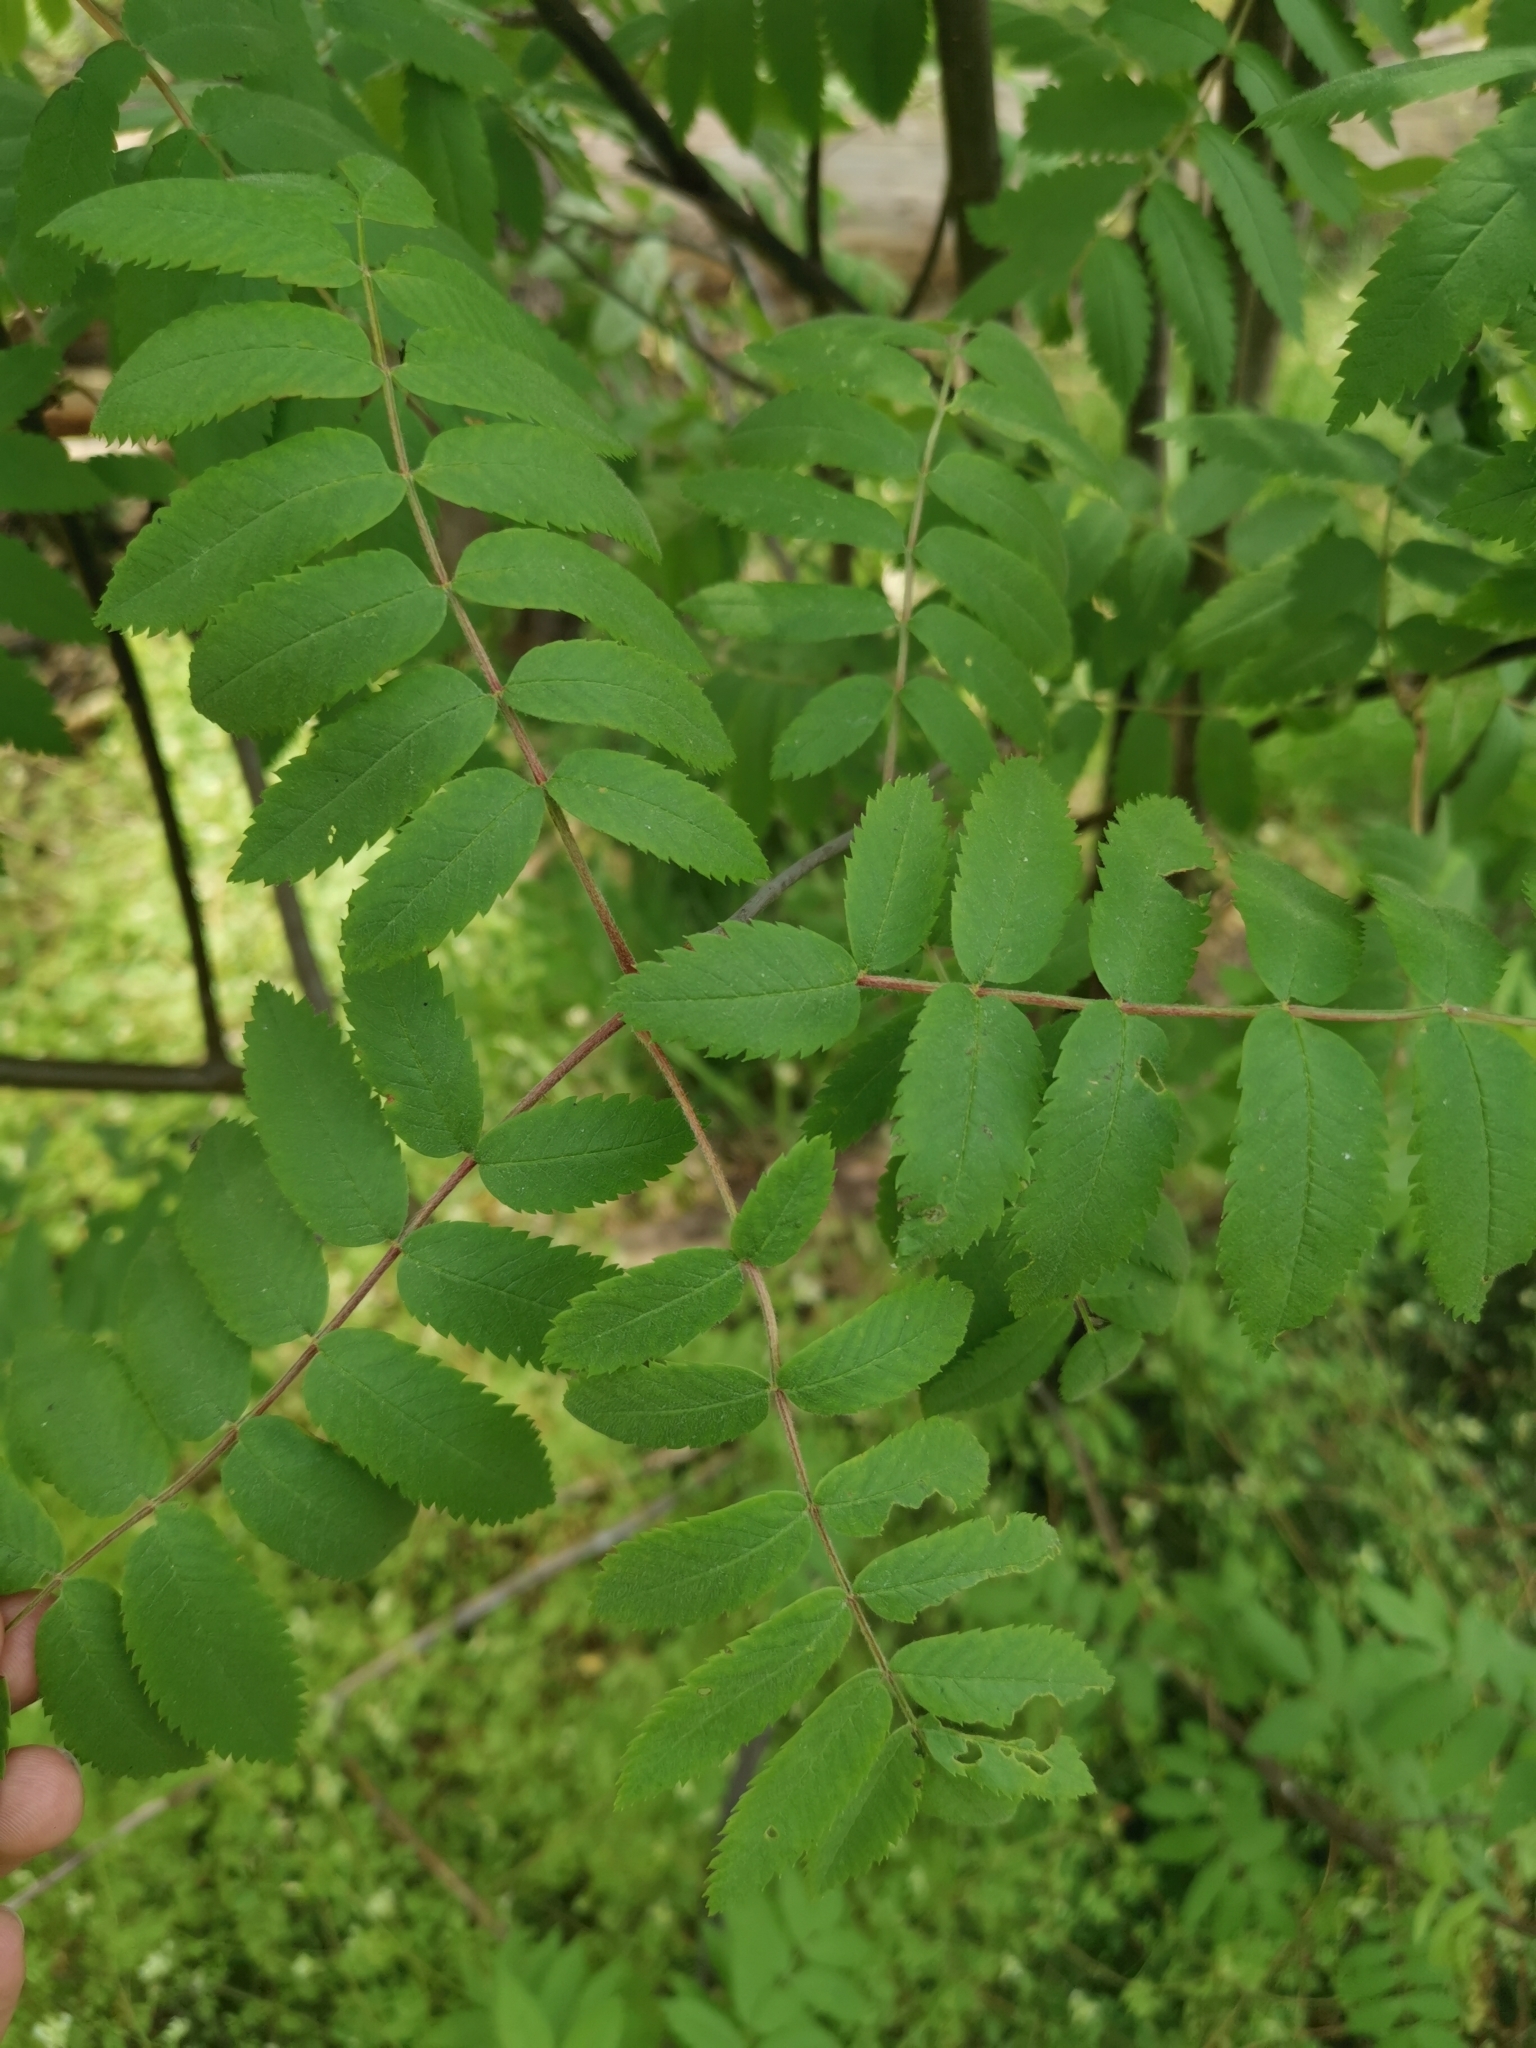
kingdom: Plantae
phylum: Tracheophyta
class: Magnoliopsida
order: Rosales
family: Rosaceae
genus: Sorbus
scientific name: Sorbus aucuparia
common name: Rowan
